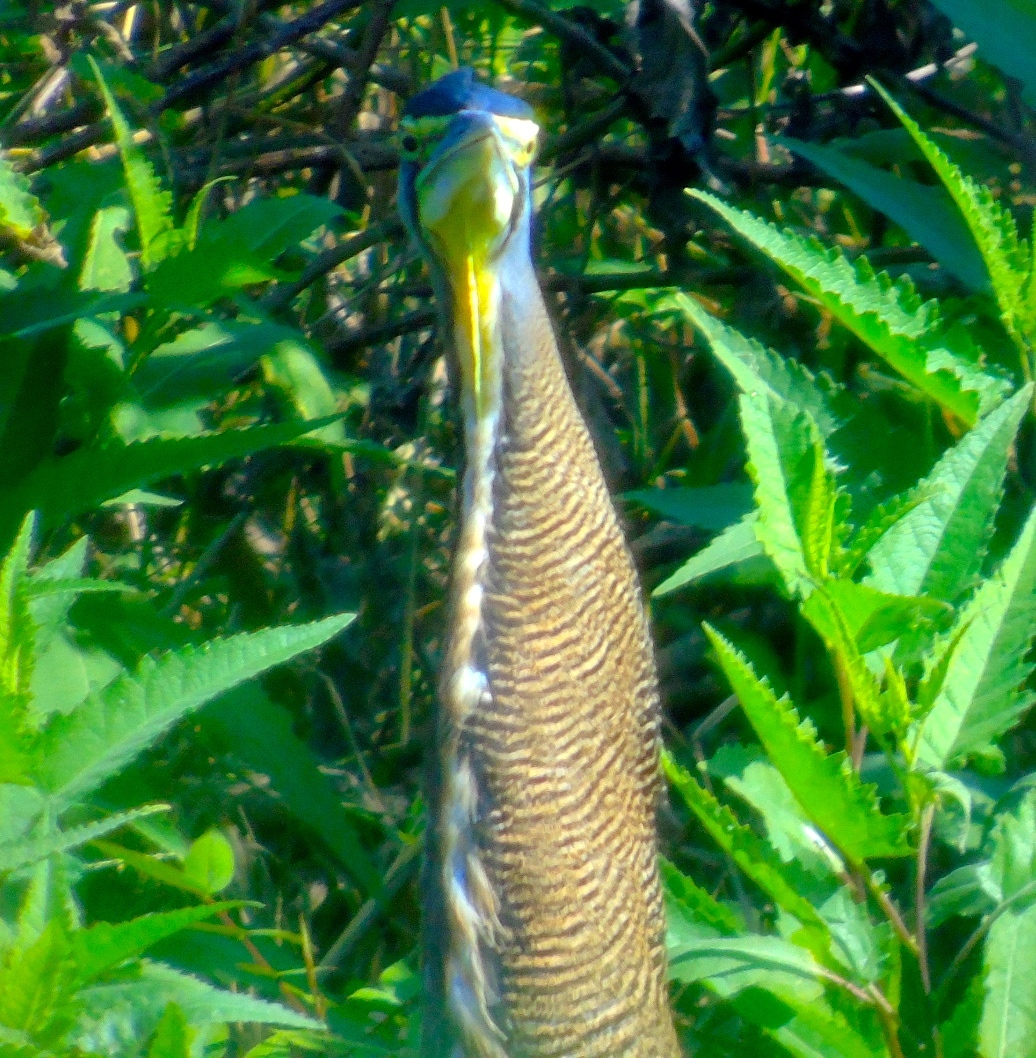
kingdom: Animalia
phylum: Chordata
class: Aves
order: Pelecaniformes
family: Ardeidae
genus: Tigrisoma
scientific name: Tigrisoma mexicanum
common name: Bare-throated tiger-heron
